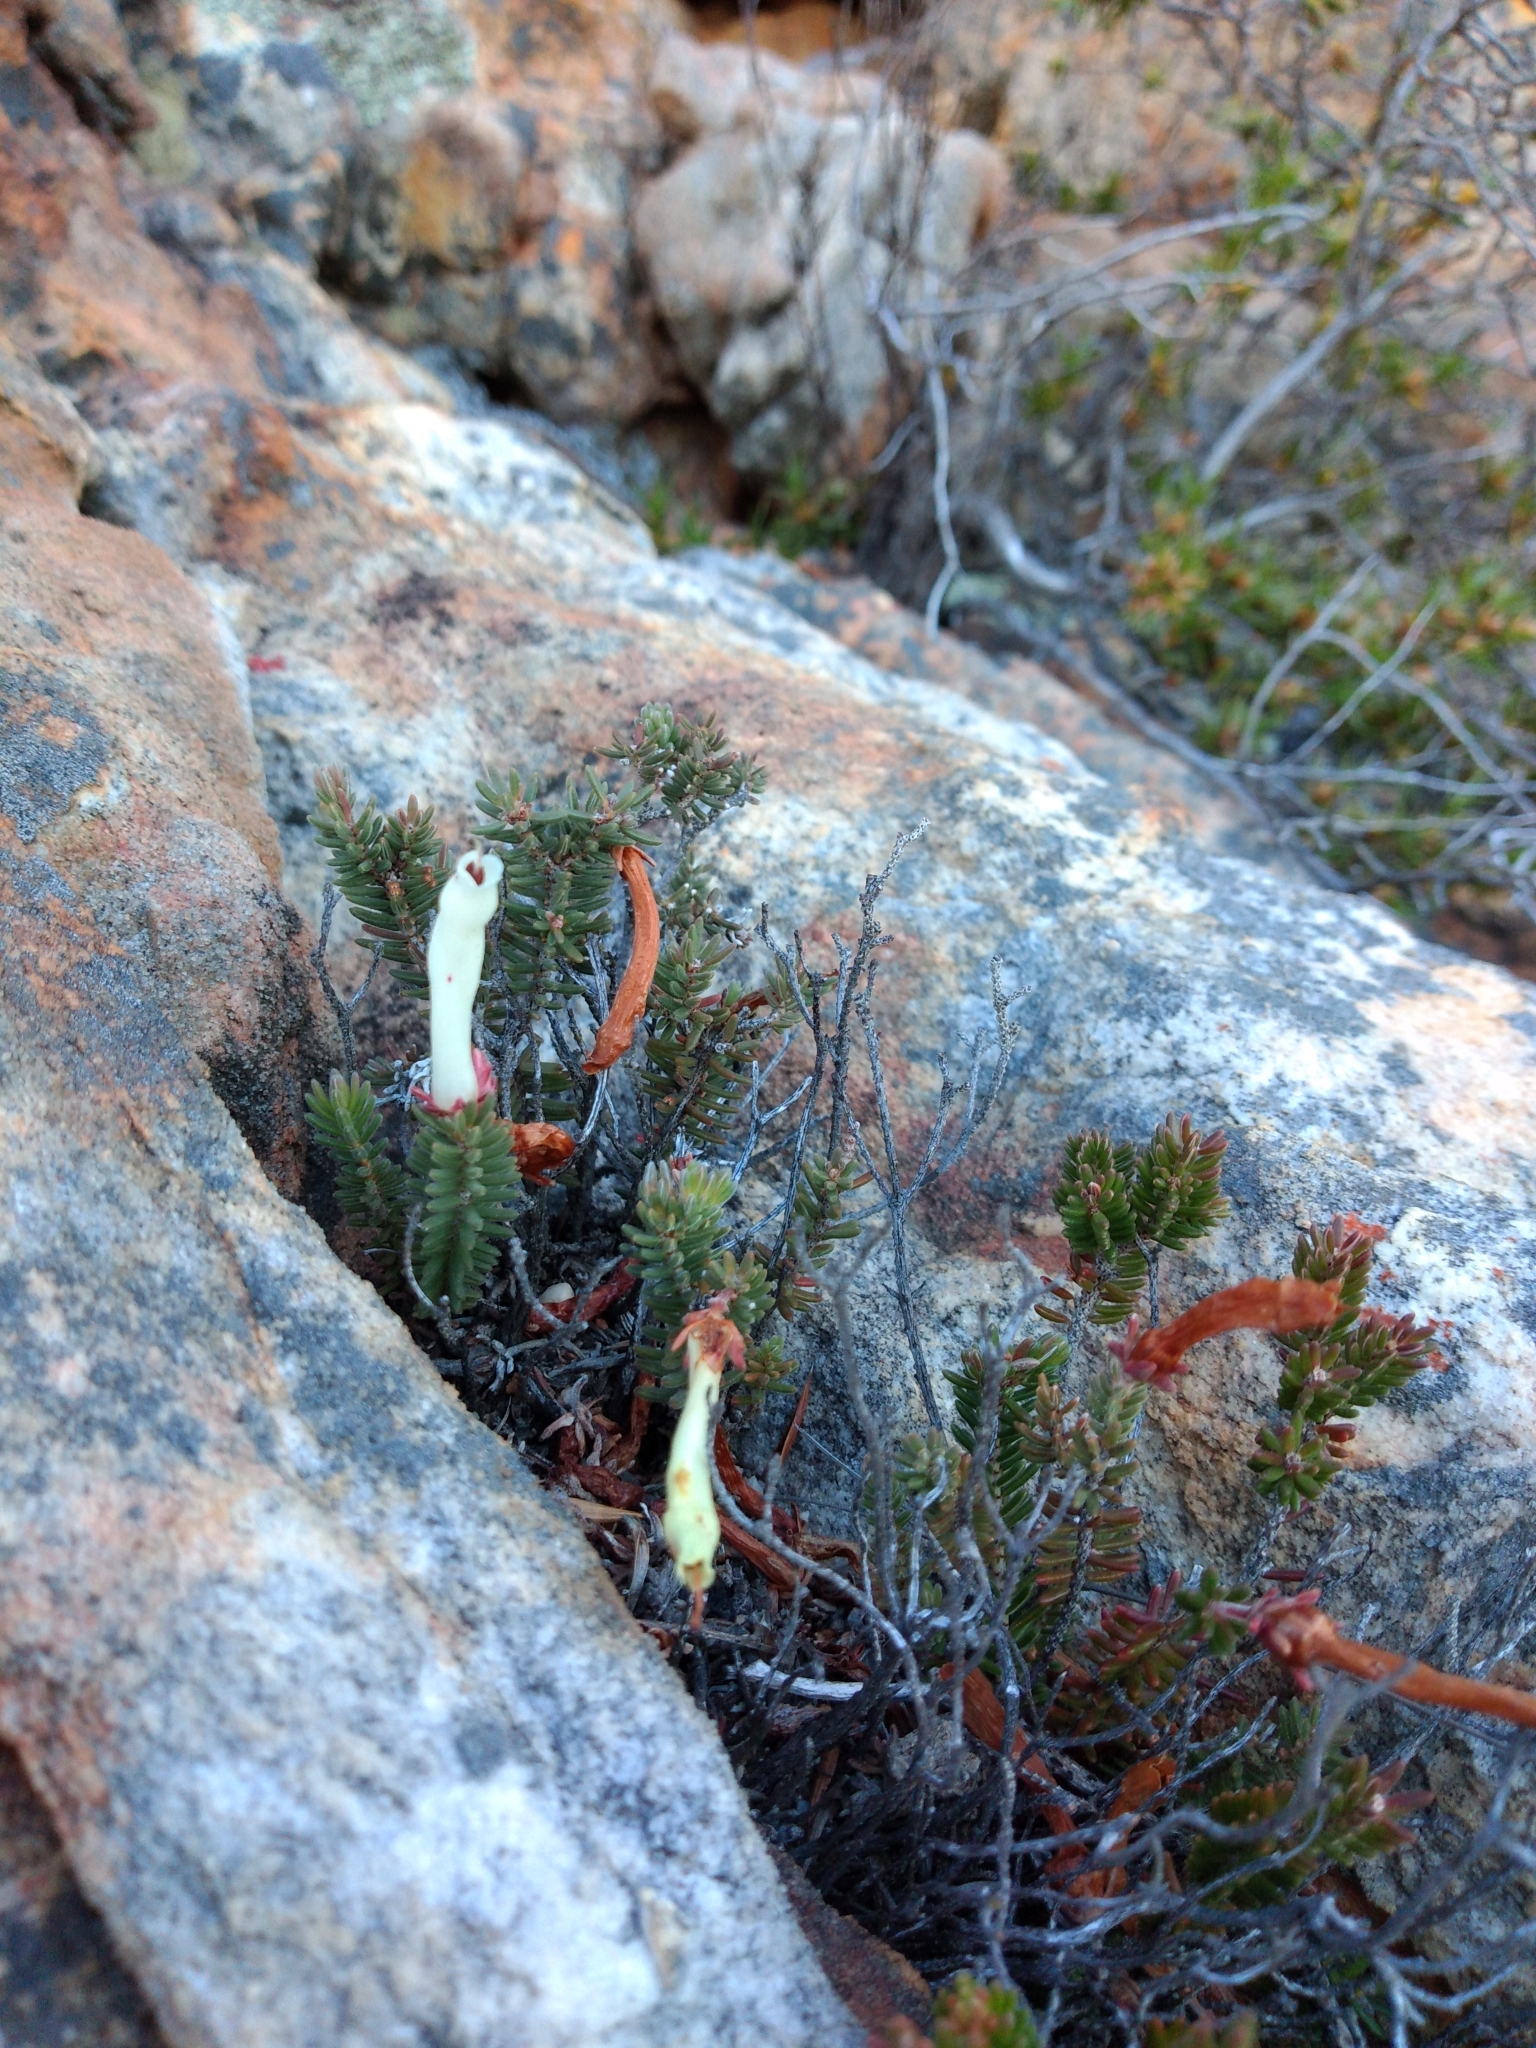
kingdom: Plantae
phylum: Tracheophyta
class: Magnoliopsida
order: Ericales
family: Ericaceae
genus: Erica
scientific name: Erica amidae
